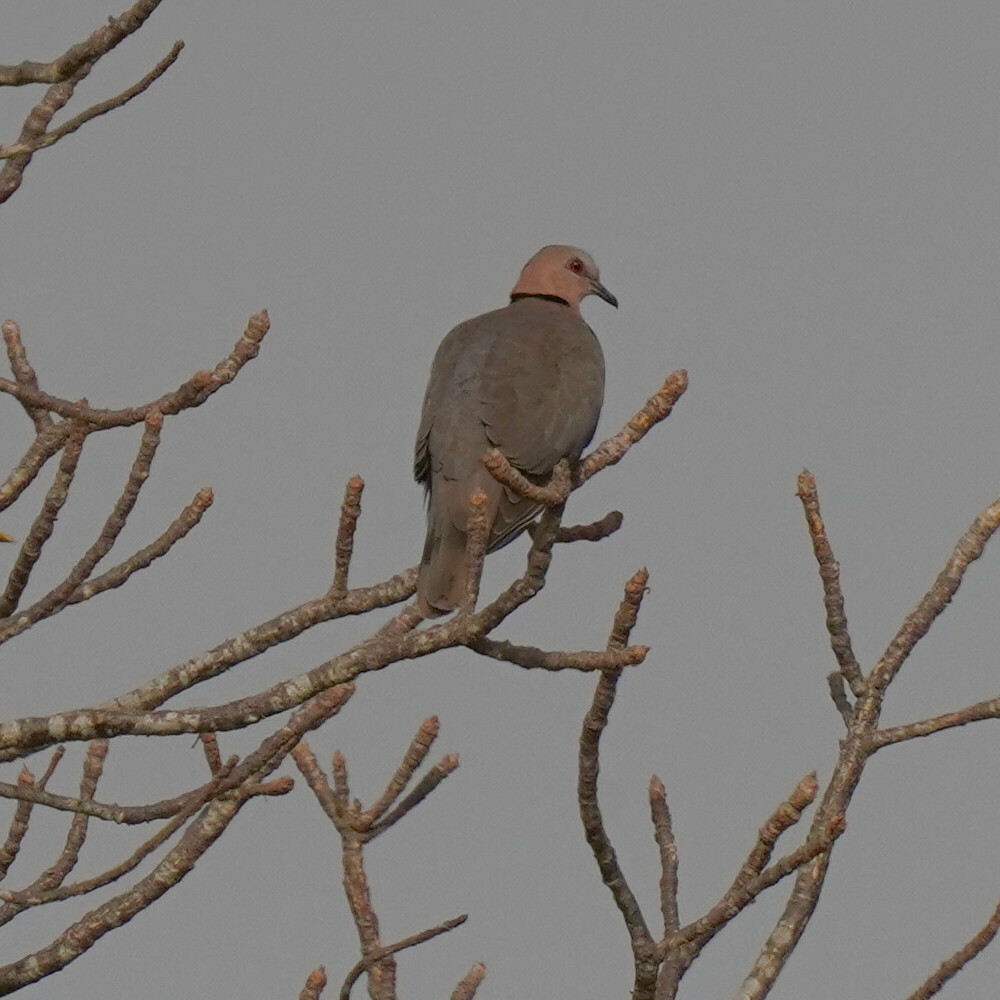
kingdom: Animalia
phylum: Chordata
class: Aves
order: Columbiformes
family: Columbidae
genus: Streptopelia
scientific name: Streptopelia semitorquata
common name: Red-eyed dove
